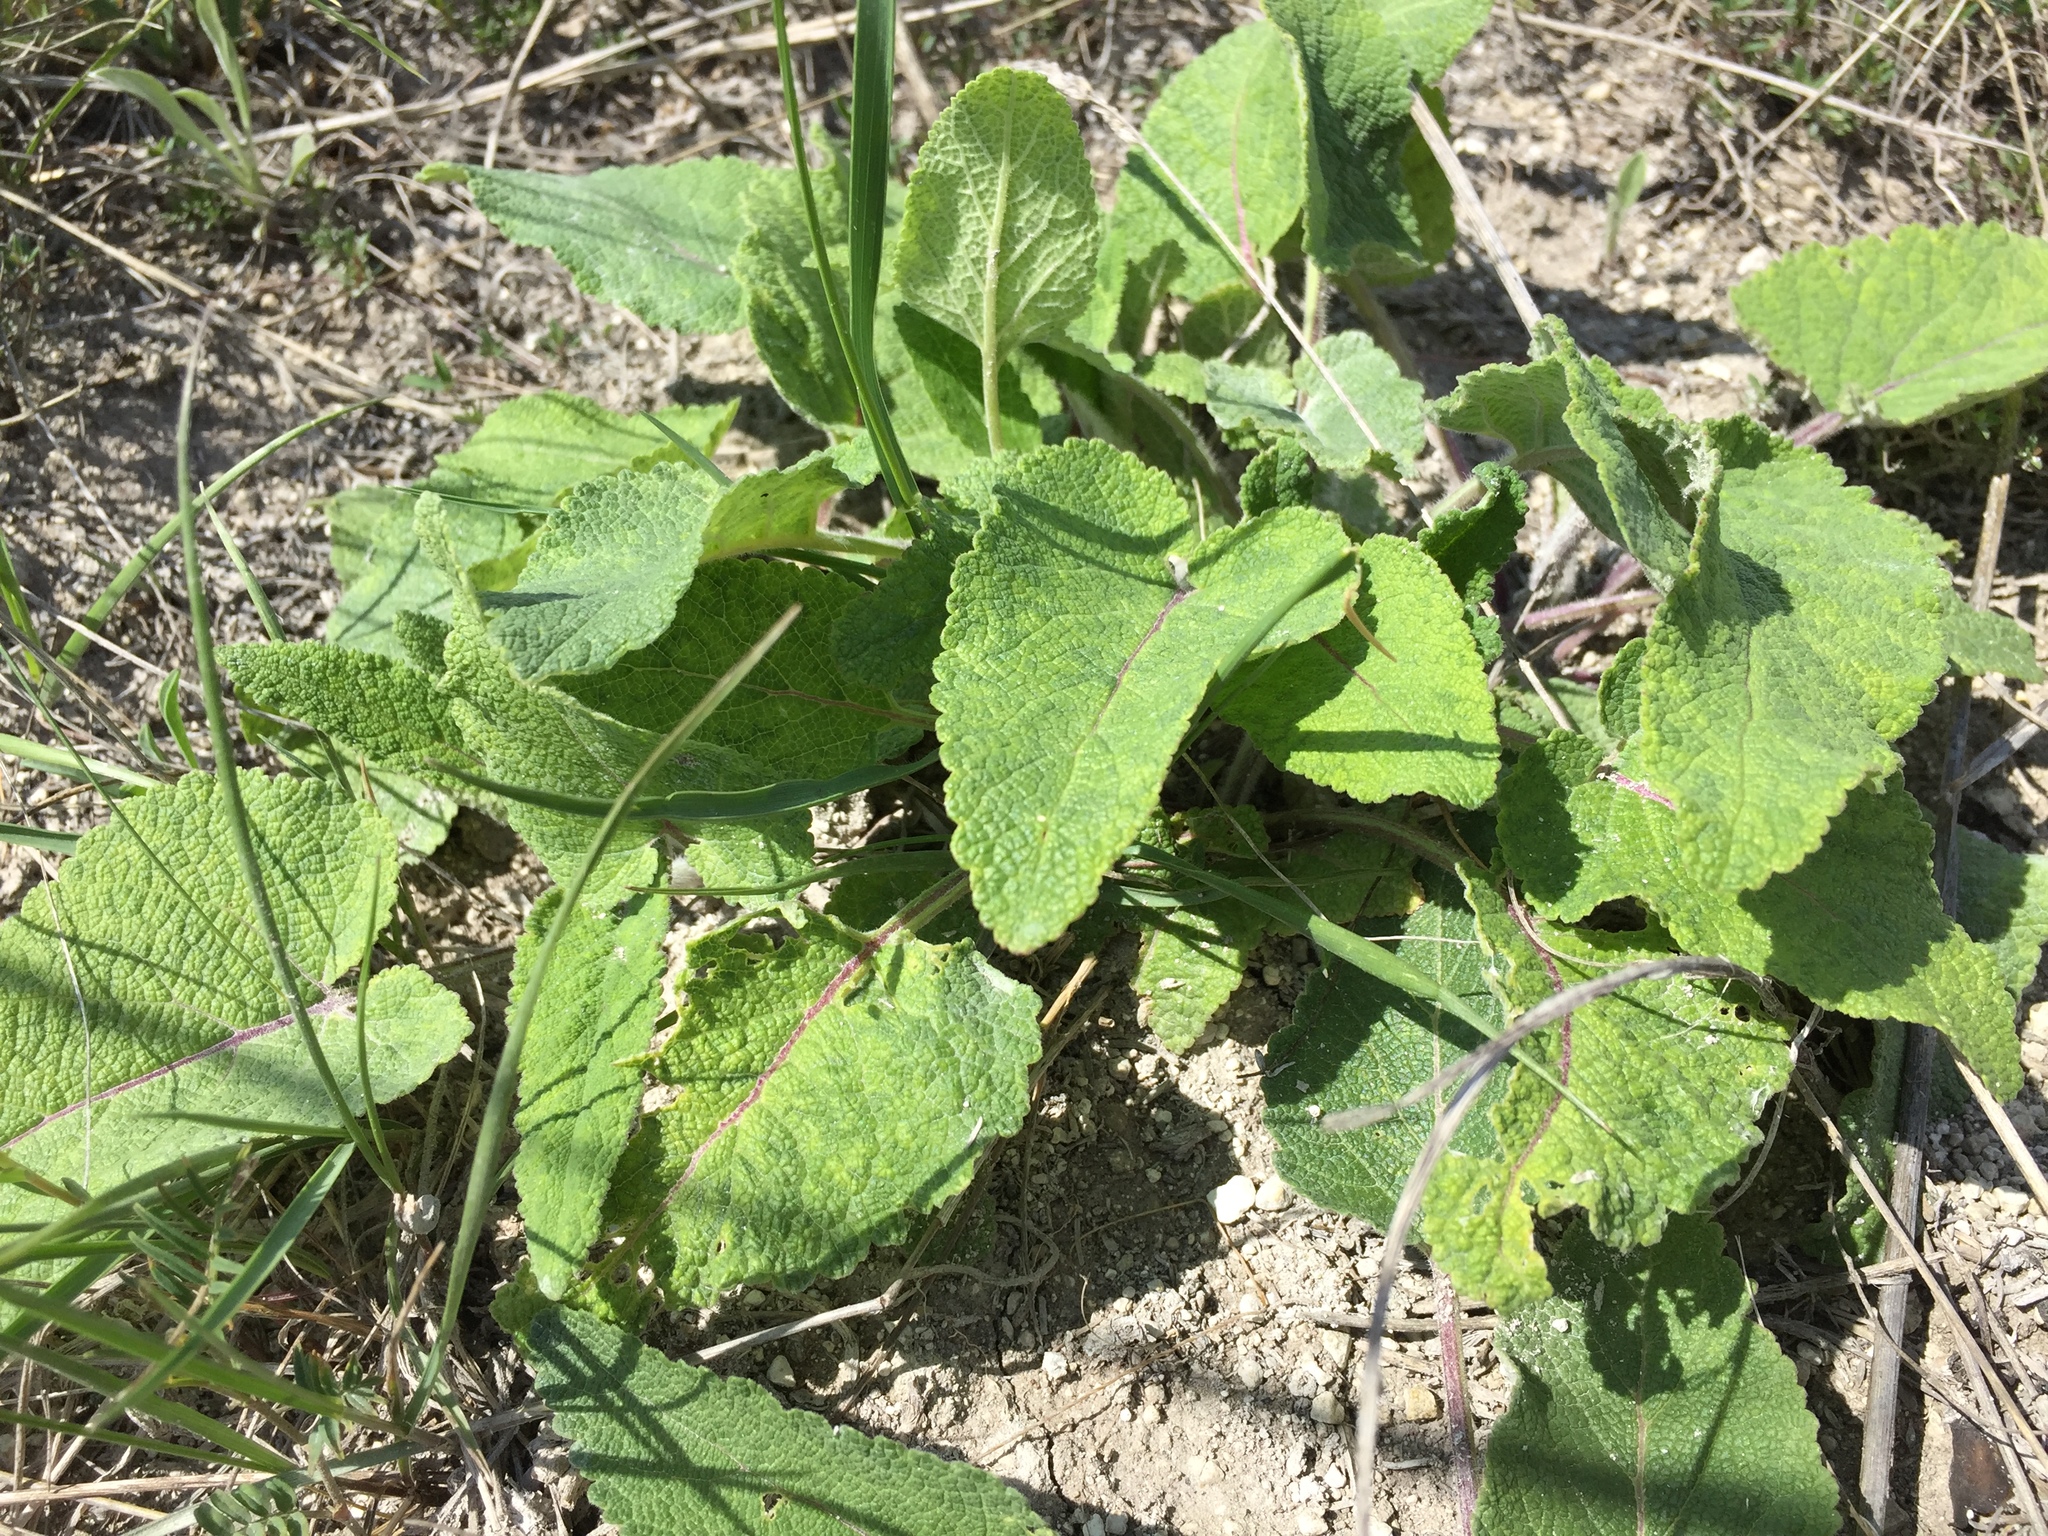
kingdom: Plantae
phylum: Tracheophyta
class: Magnoliopsida
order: Lamiales
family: Lamiaceae
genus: Salvia
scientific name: Salvia nutans
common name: Nodding sage
